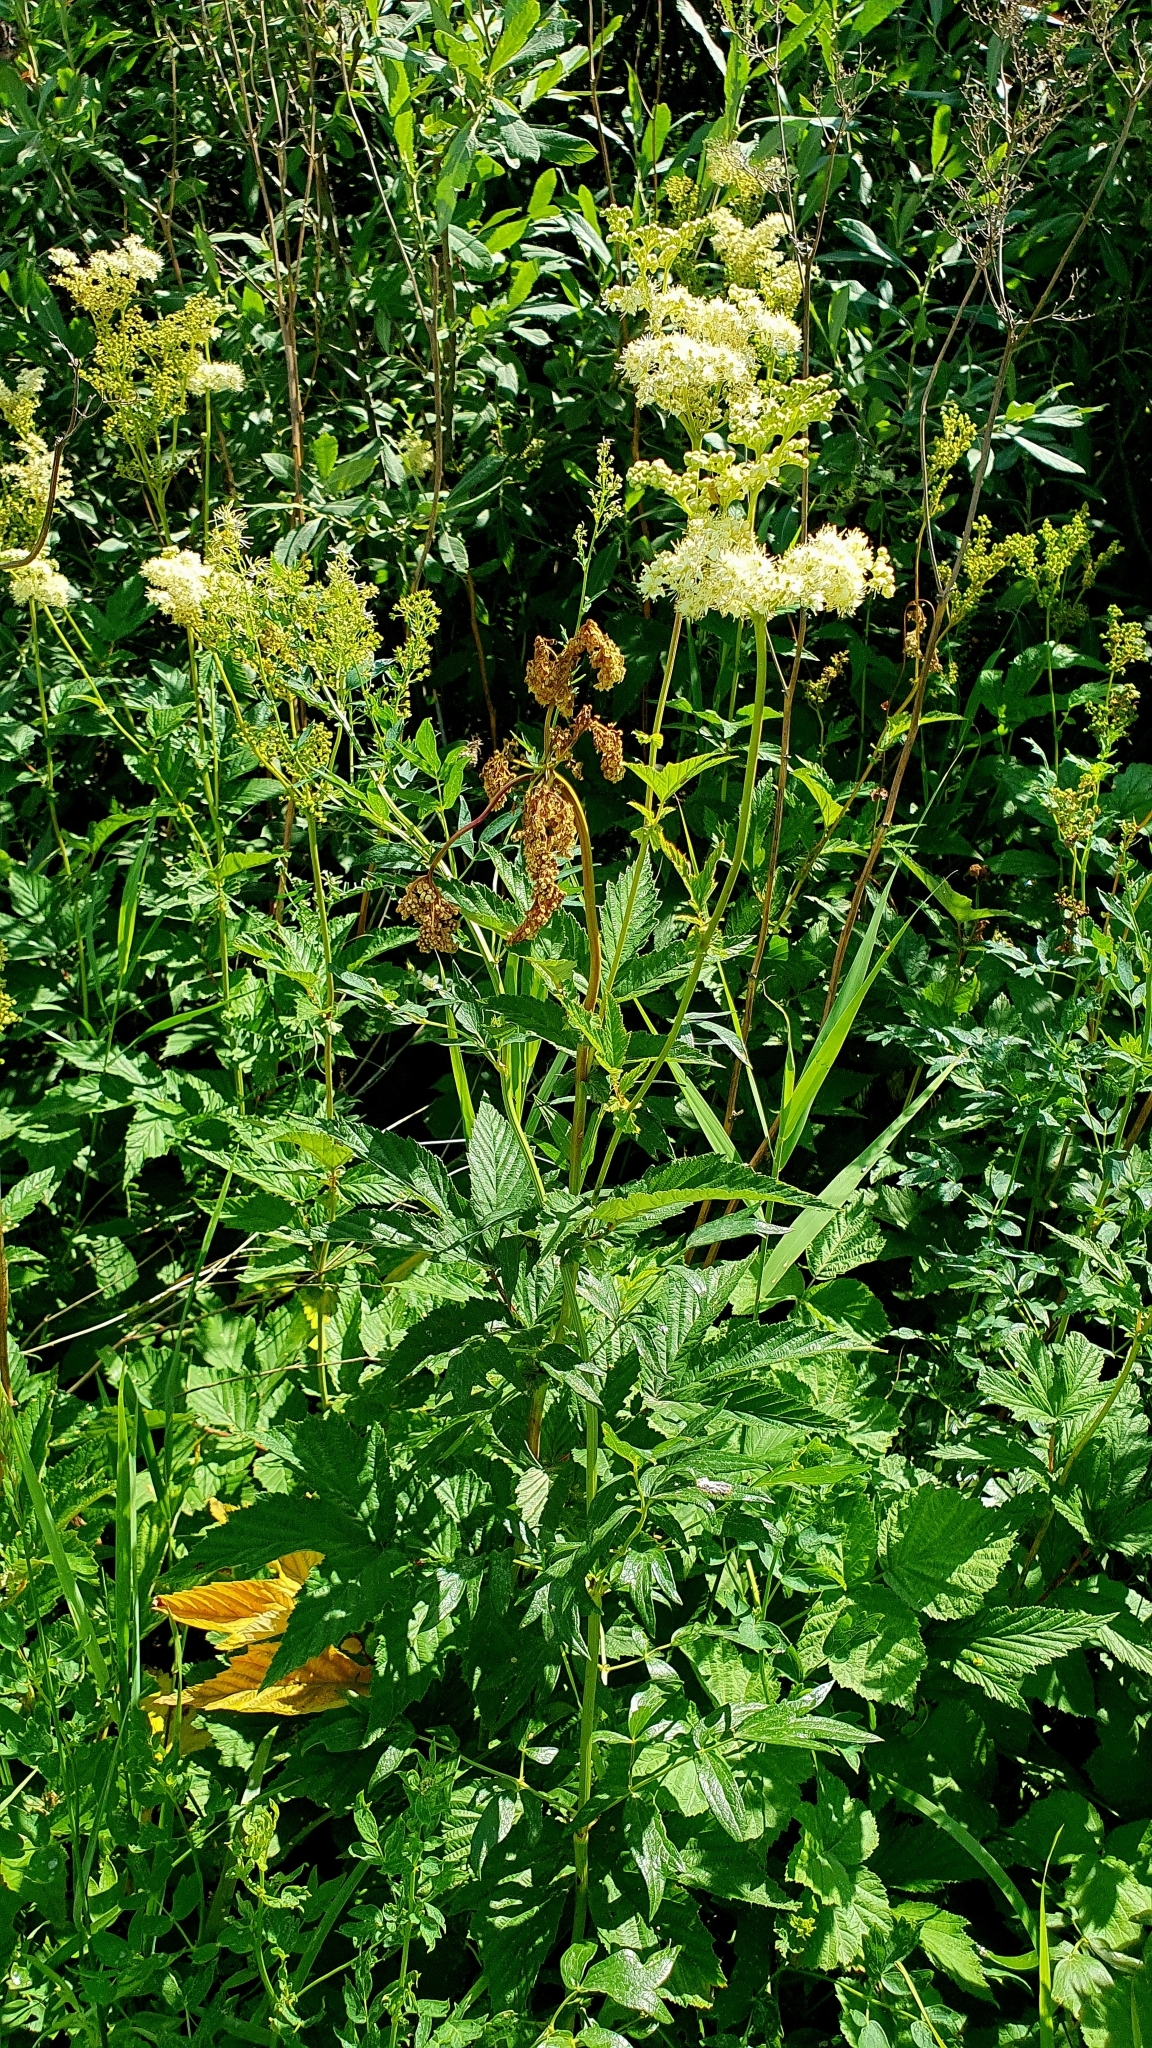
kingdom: Plantae
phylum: Tracheophyta
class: Magnoliopsida
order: Rosales
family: Rosaceae
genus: Filipendula
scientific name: Filipendula ulmaria
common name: Meadowsweet
